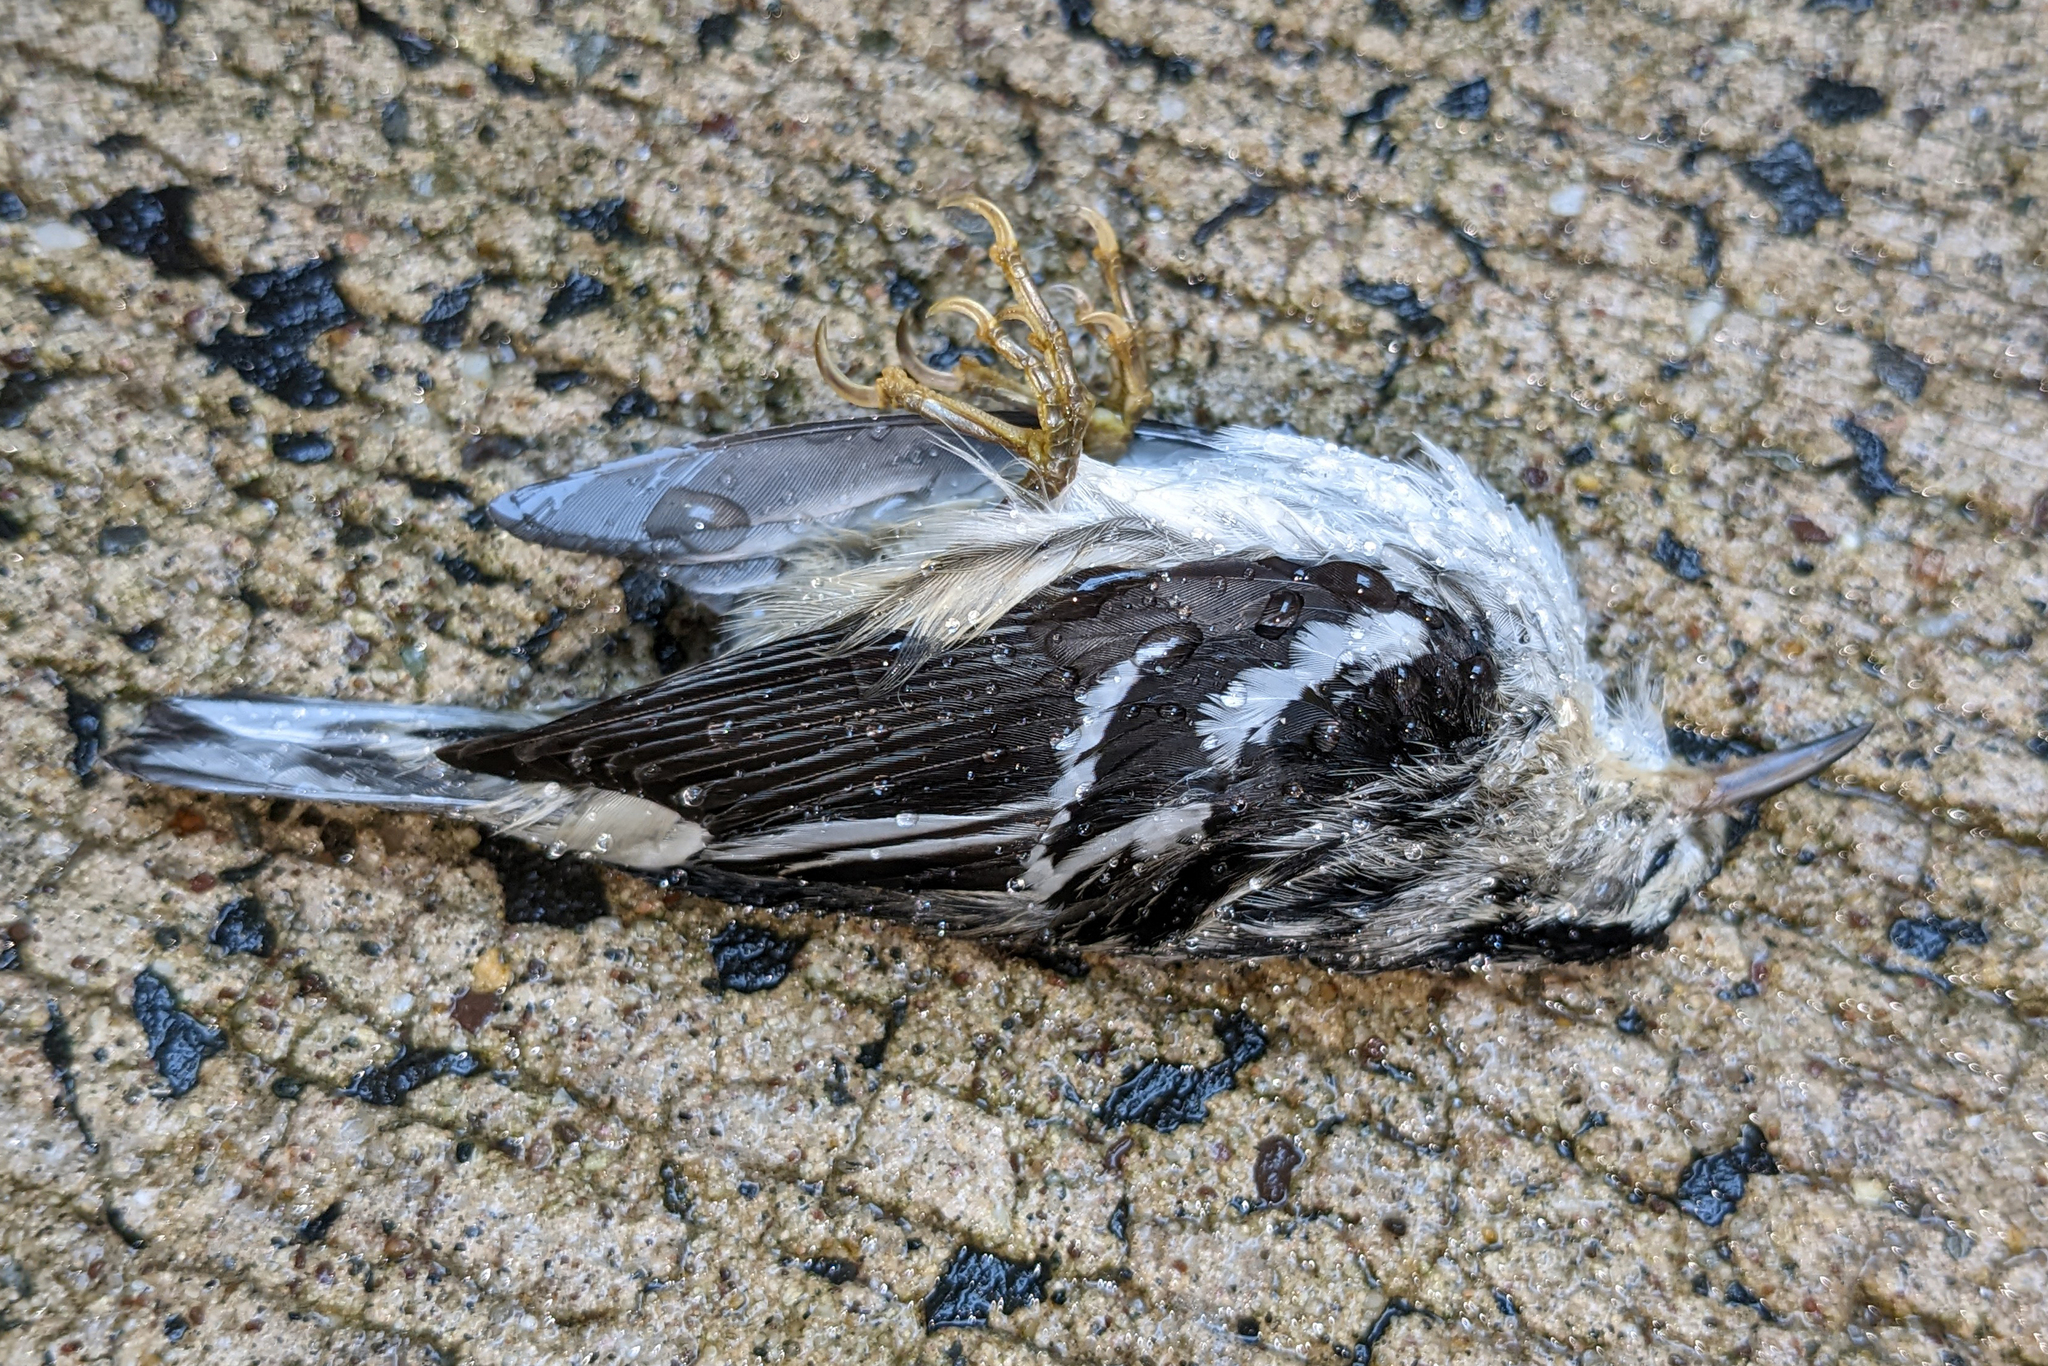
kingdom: Animalia
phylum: Chordata
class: Aves
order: Passeriformes
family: Parulidae
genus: Mniotilta
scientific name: Mniotilta varia
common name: Black-and-white warbler
